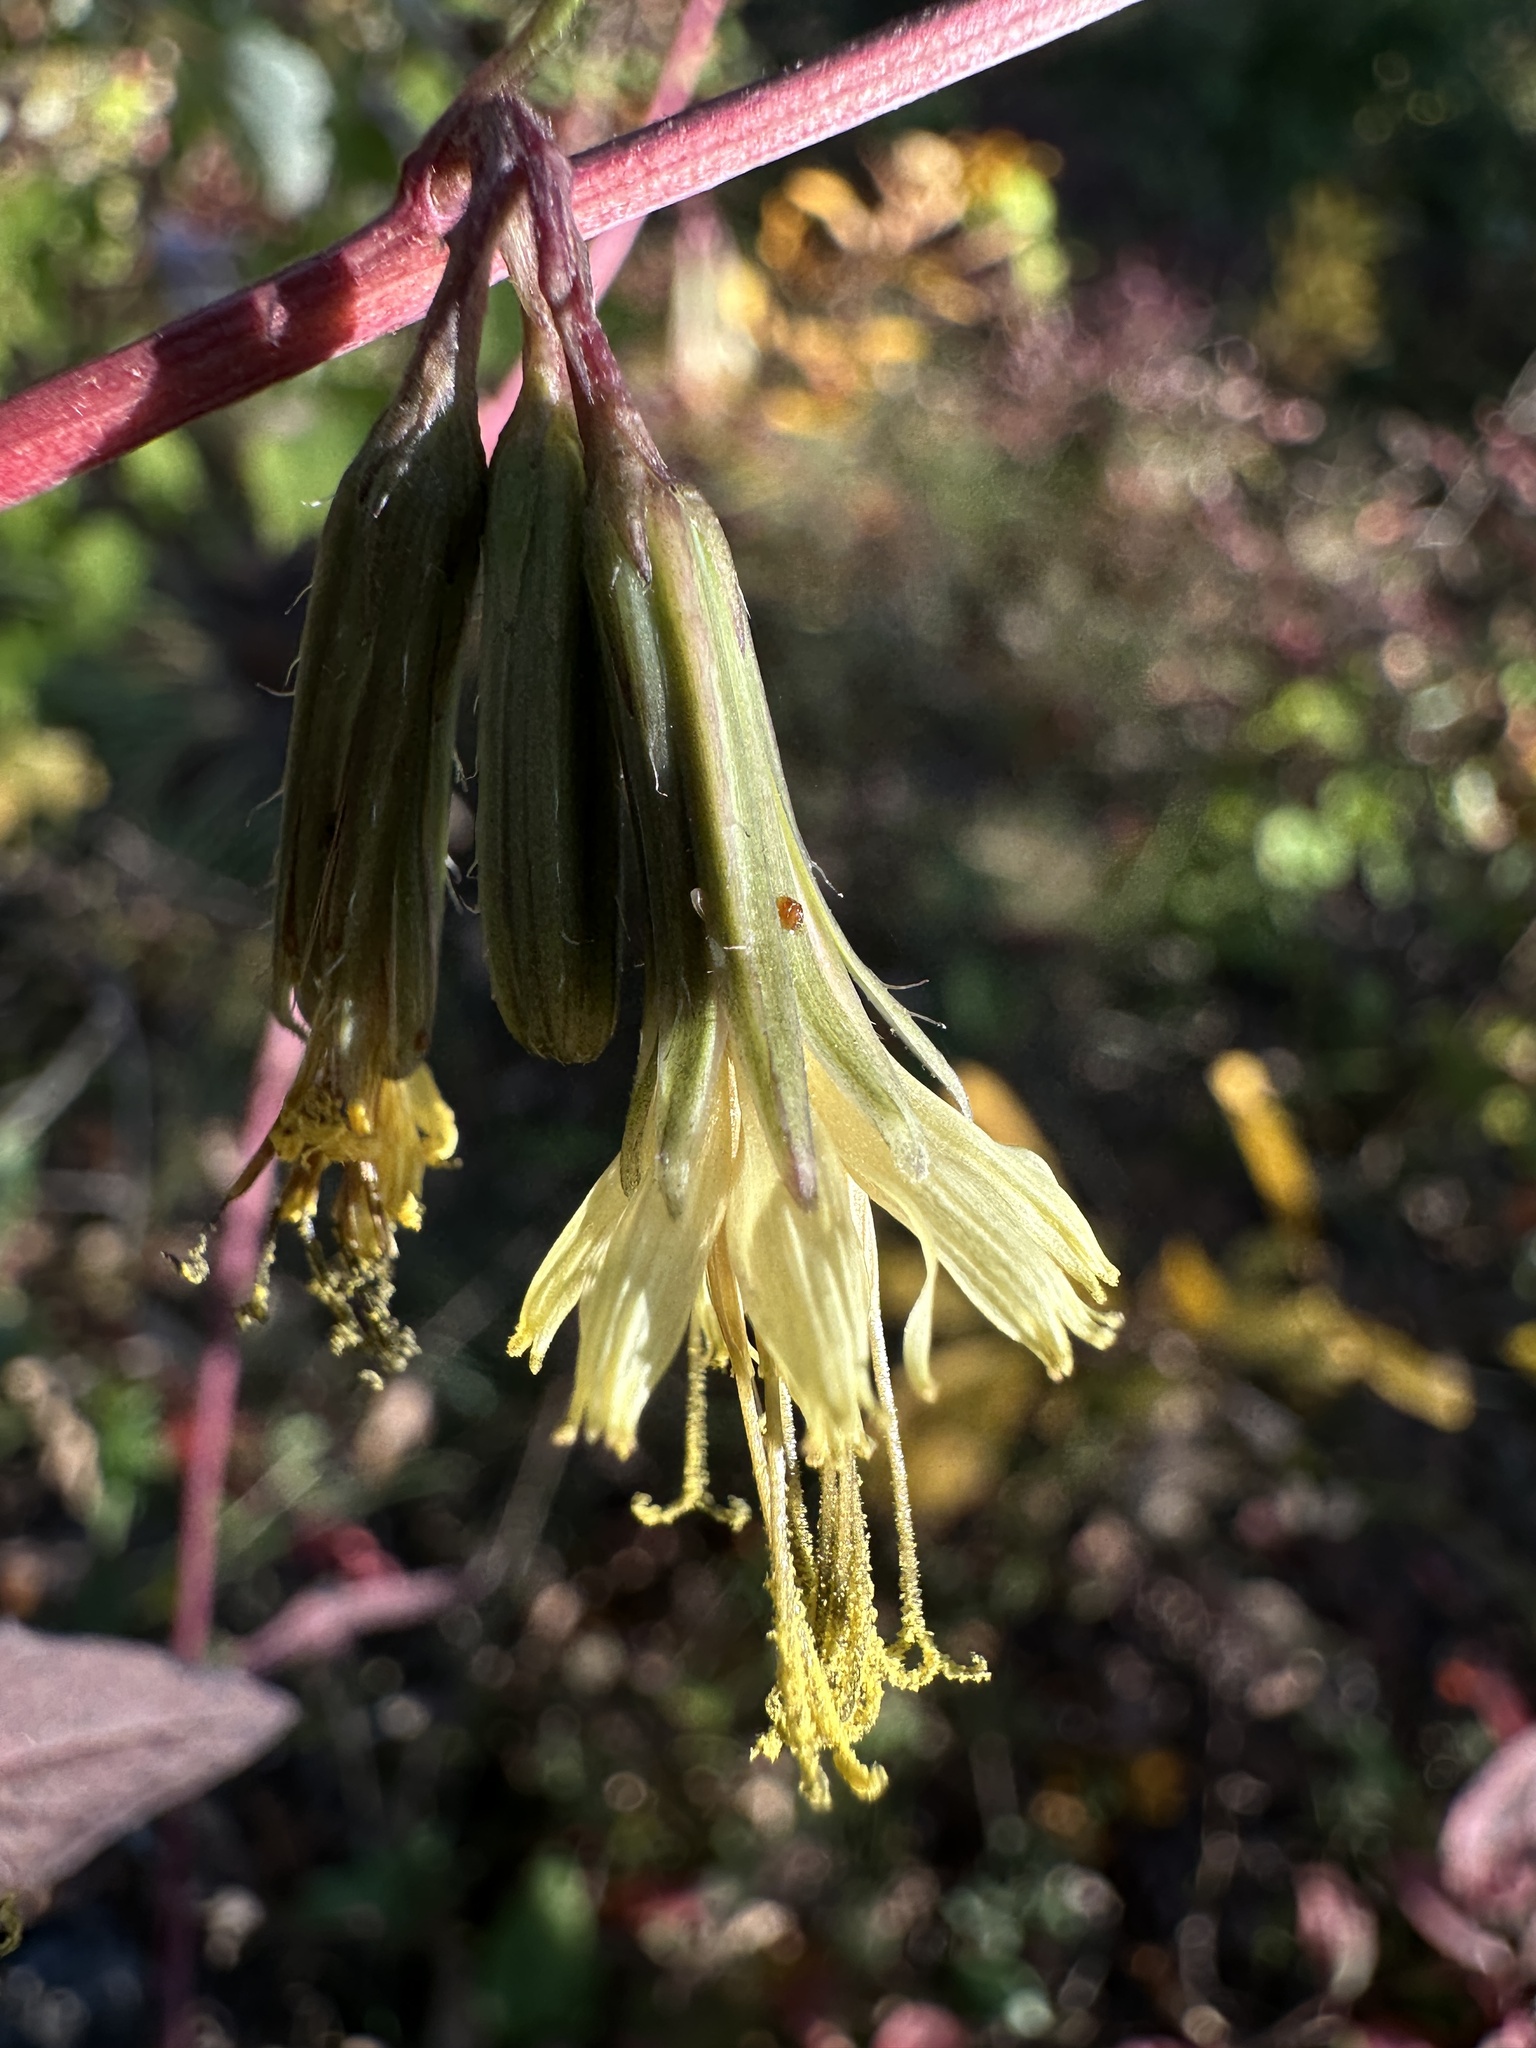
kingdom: Plantae
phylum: Tracheophyta
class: Magnoliopsida
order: Asterales
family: Asteraceae
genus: Nabalus
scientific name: Nabalus serpentarius
